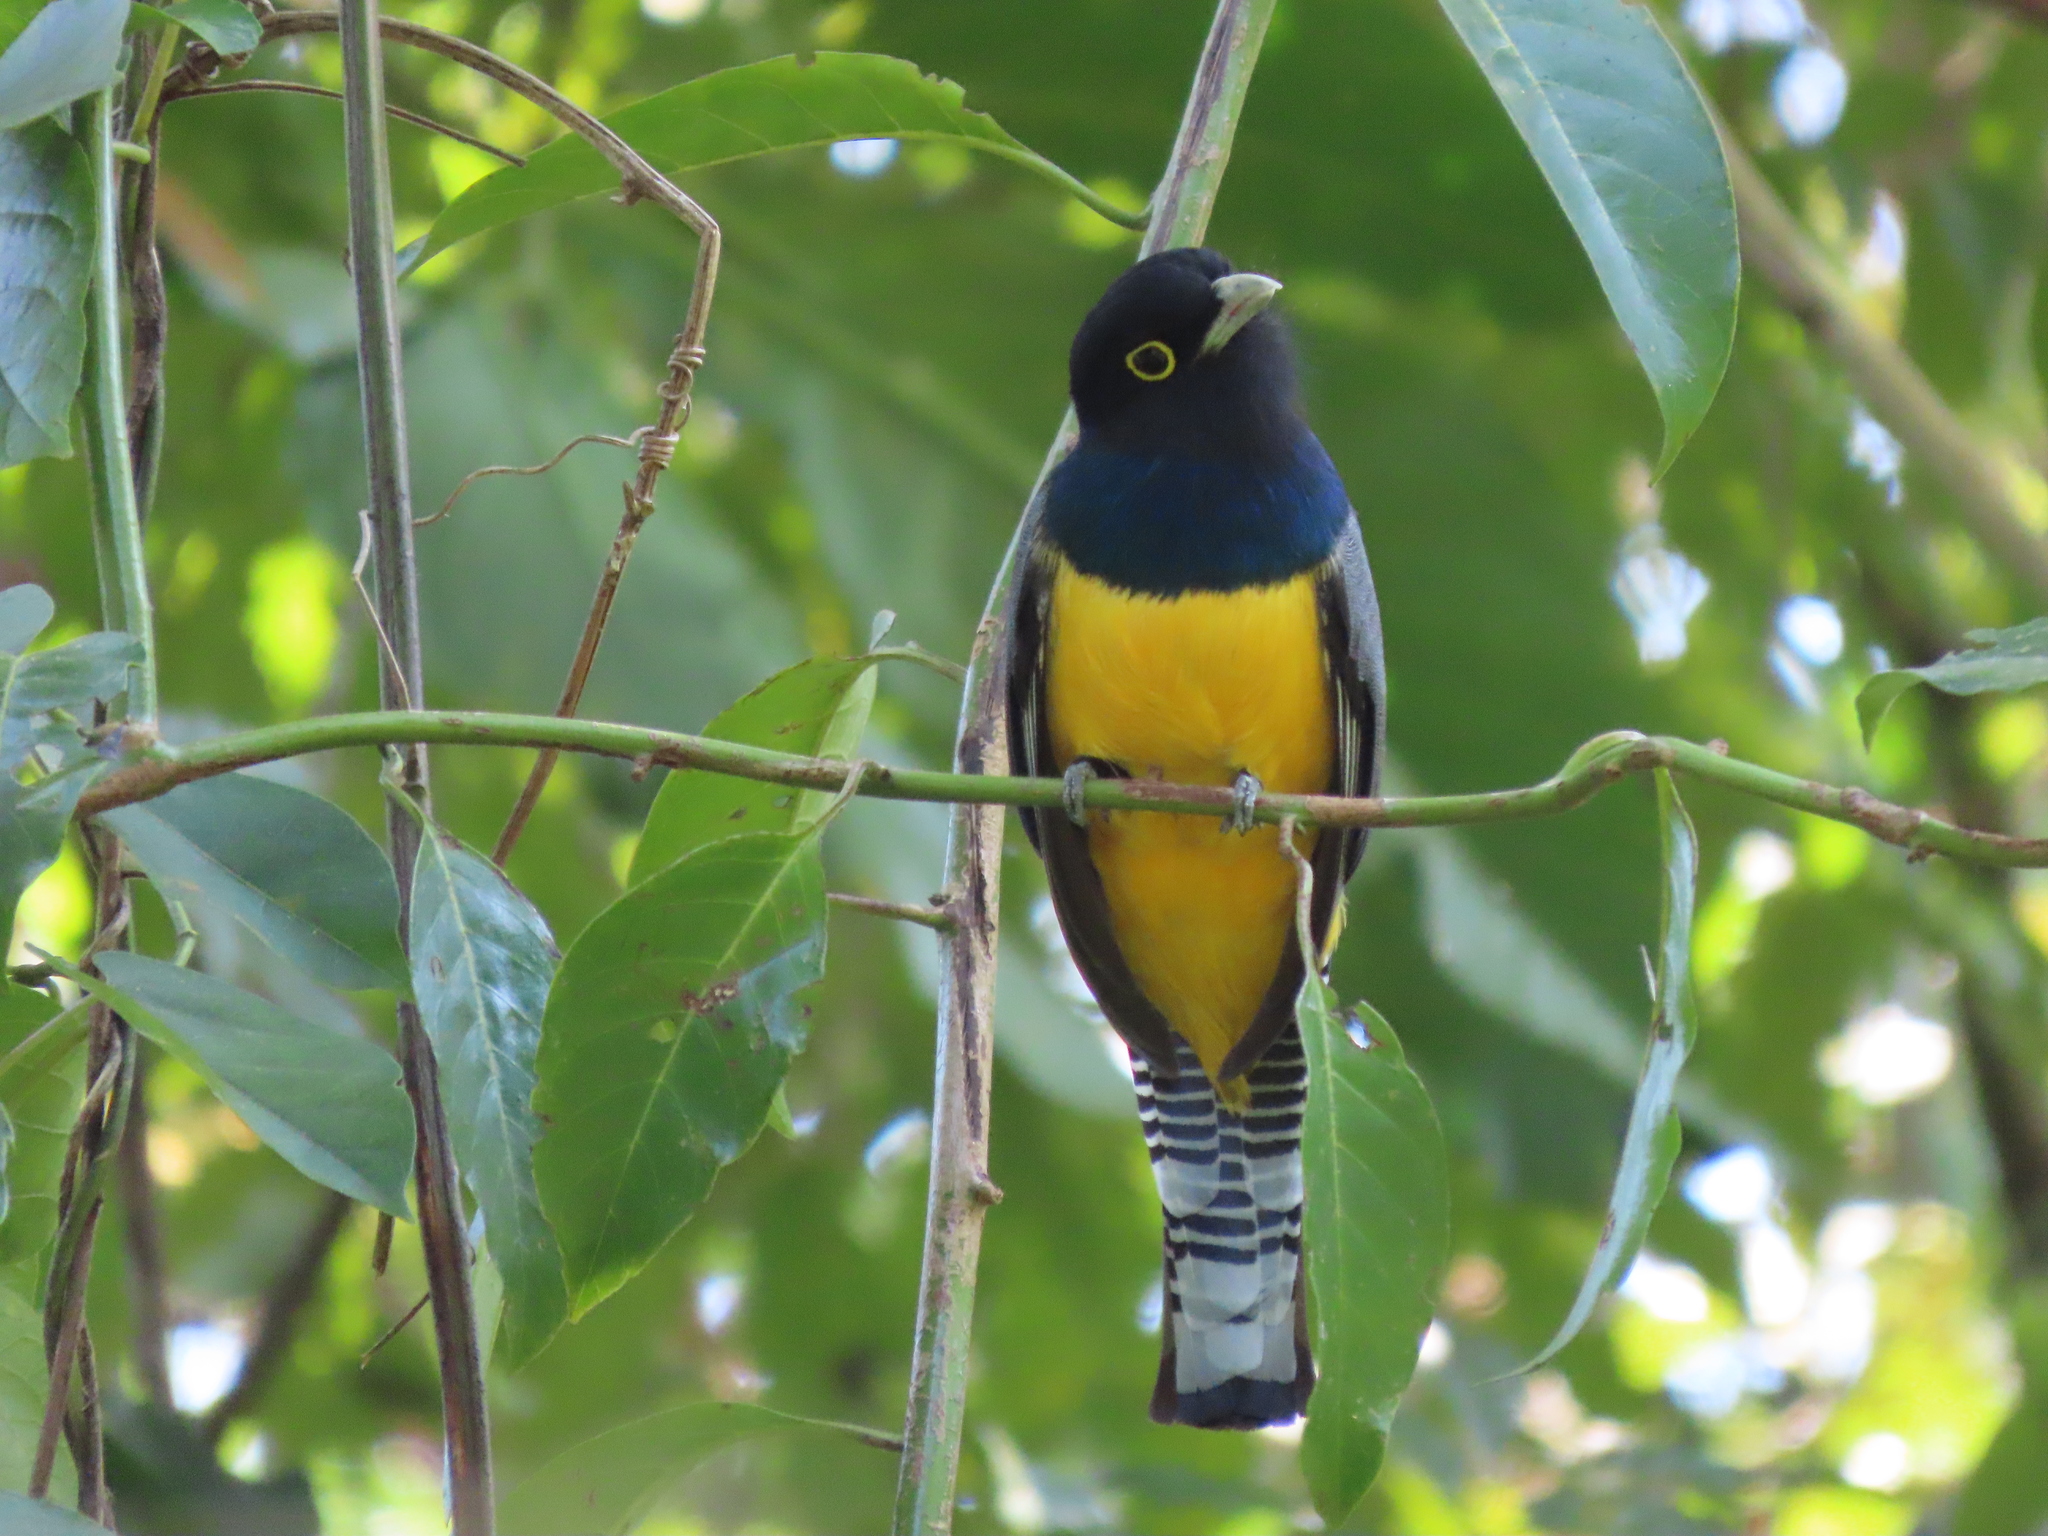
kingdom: Animalia
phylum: Chordata
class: Aves
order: Trogoniformes
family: Trogonidae
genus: Trogon
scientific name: Trogon caligatus
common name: Gartered trogon
